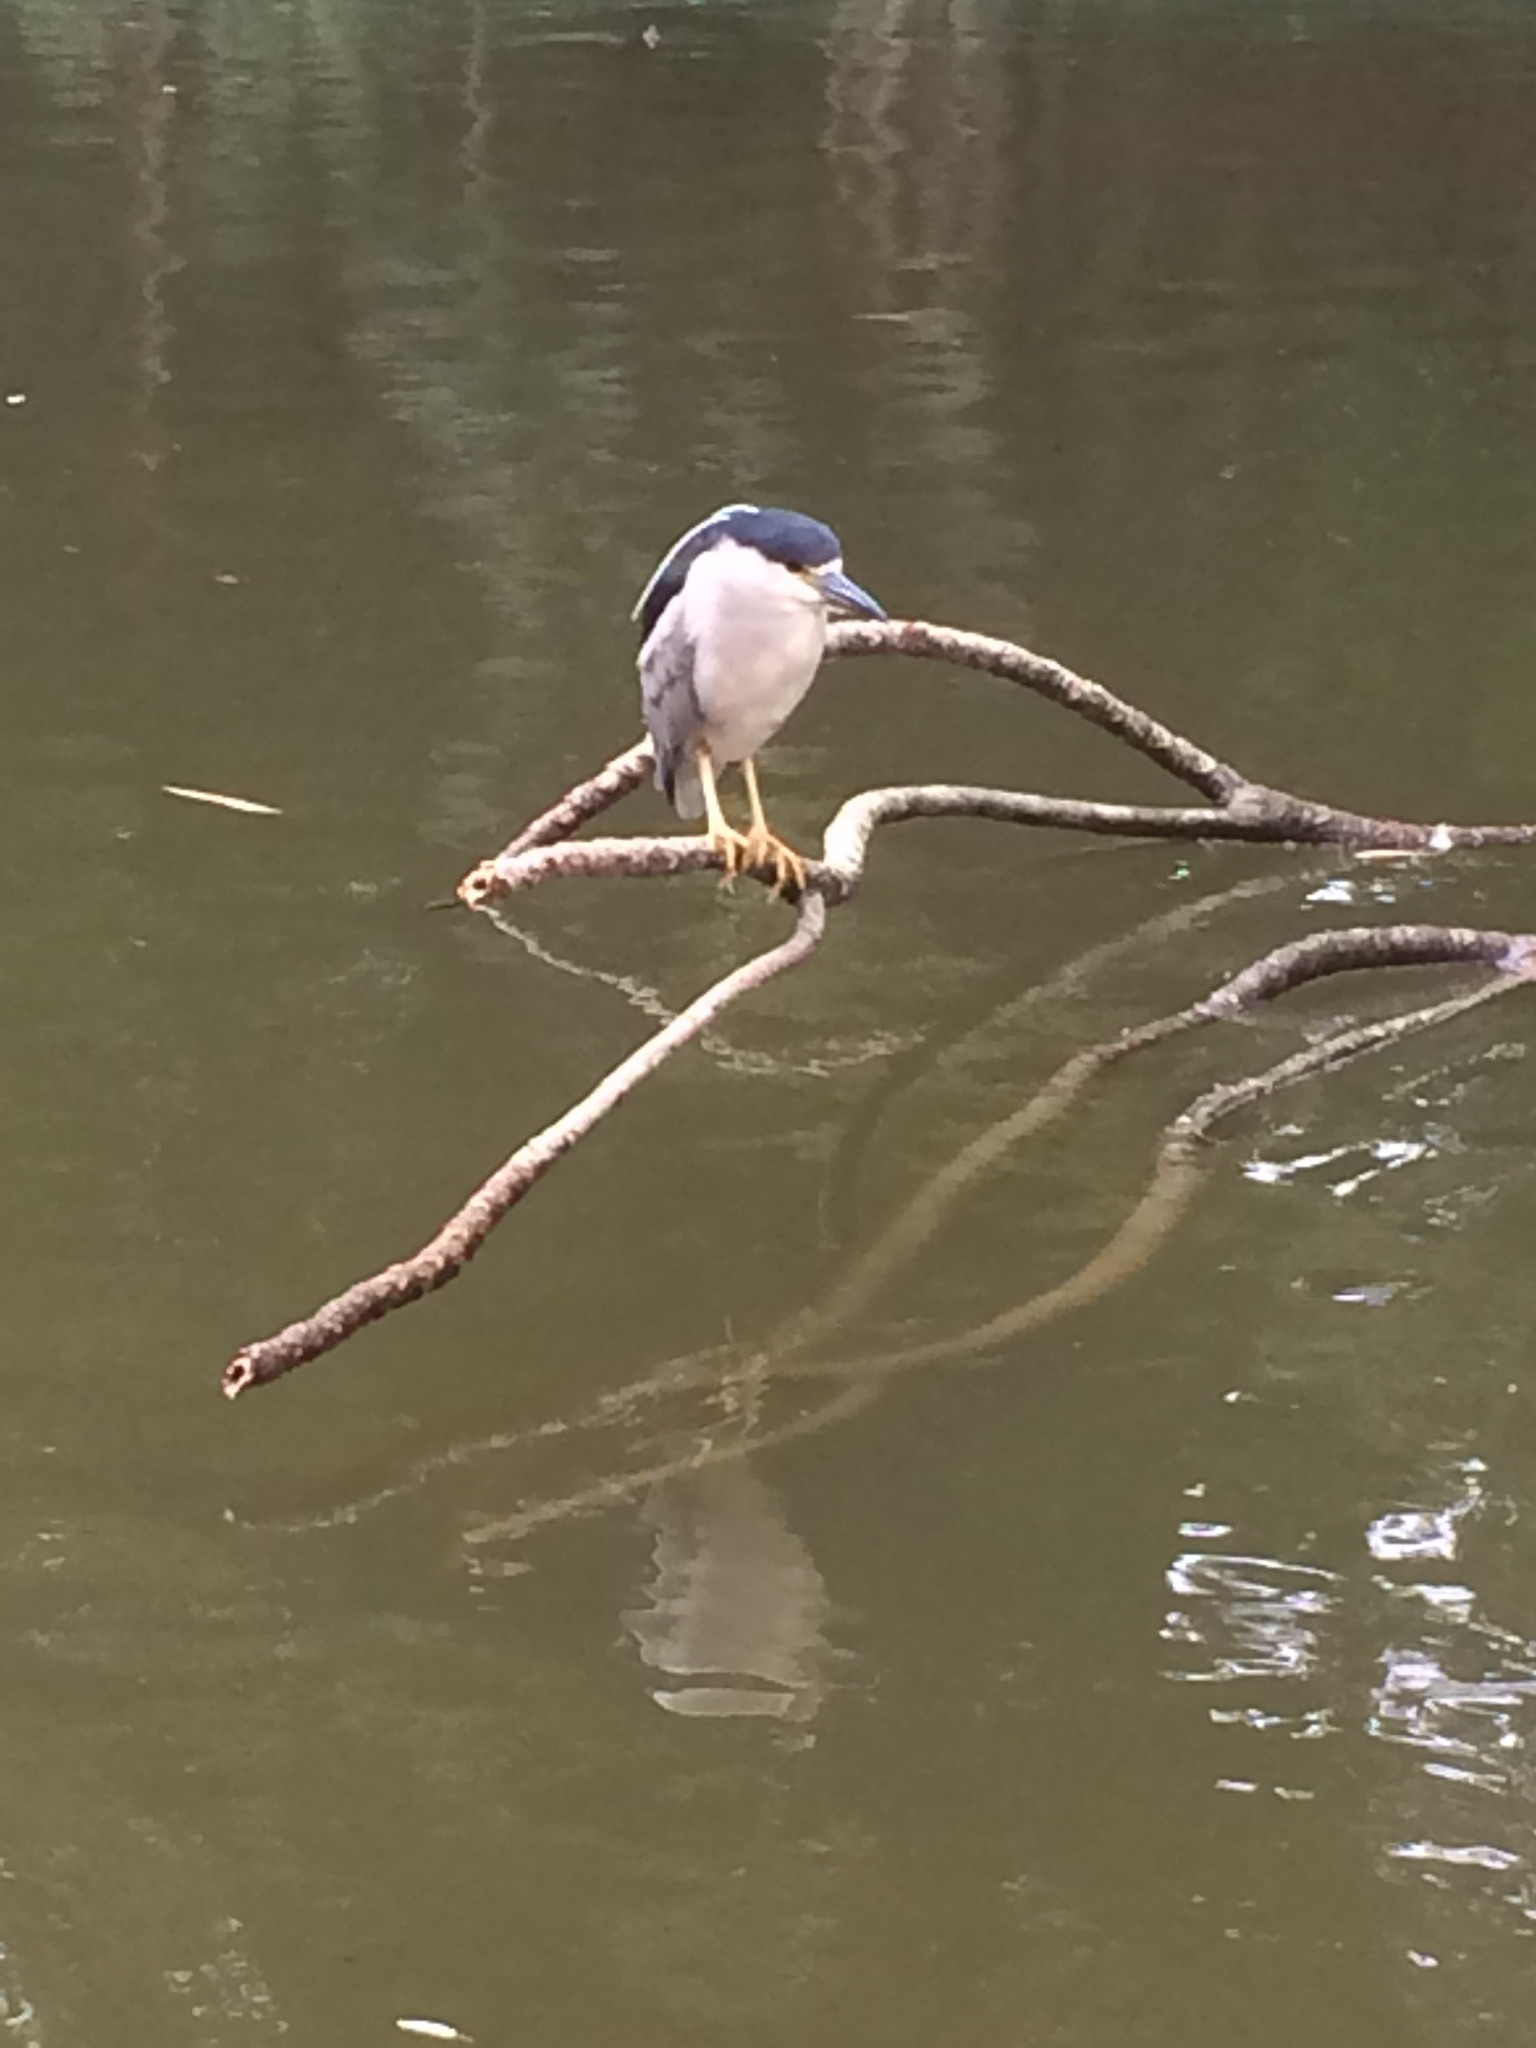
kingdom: Animalia
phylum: Chordata
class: Aves
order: Pelecaniformes
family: Ardeidae
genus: Nycticorax
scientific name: Nycticorax nycticorax
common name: Black-crowned night heron
